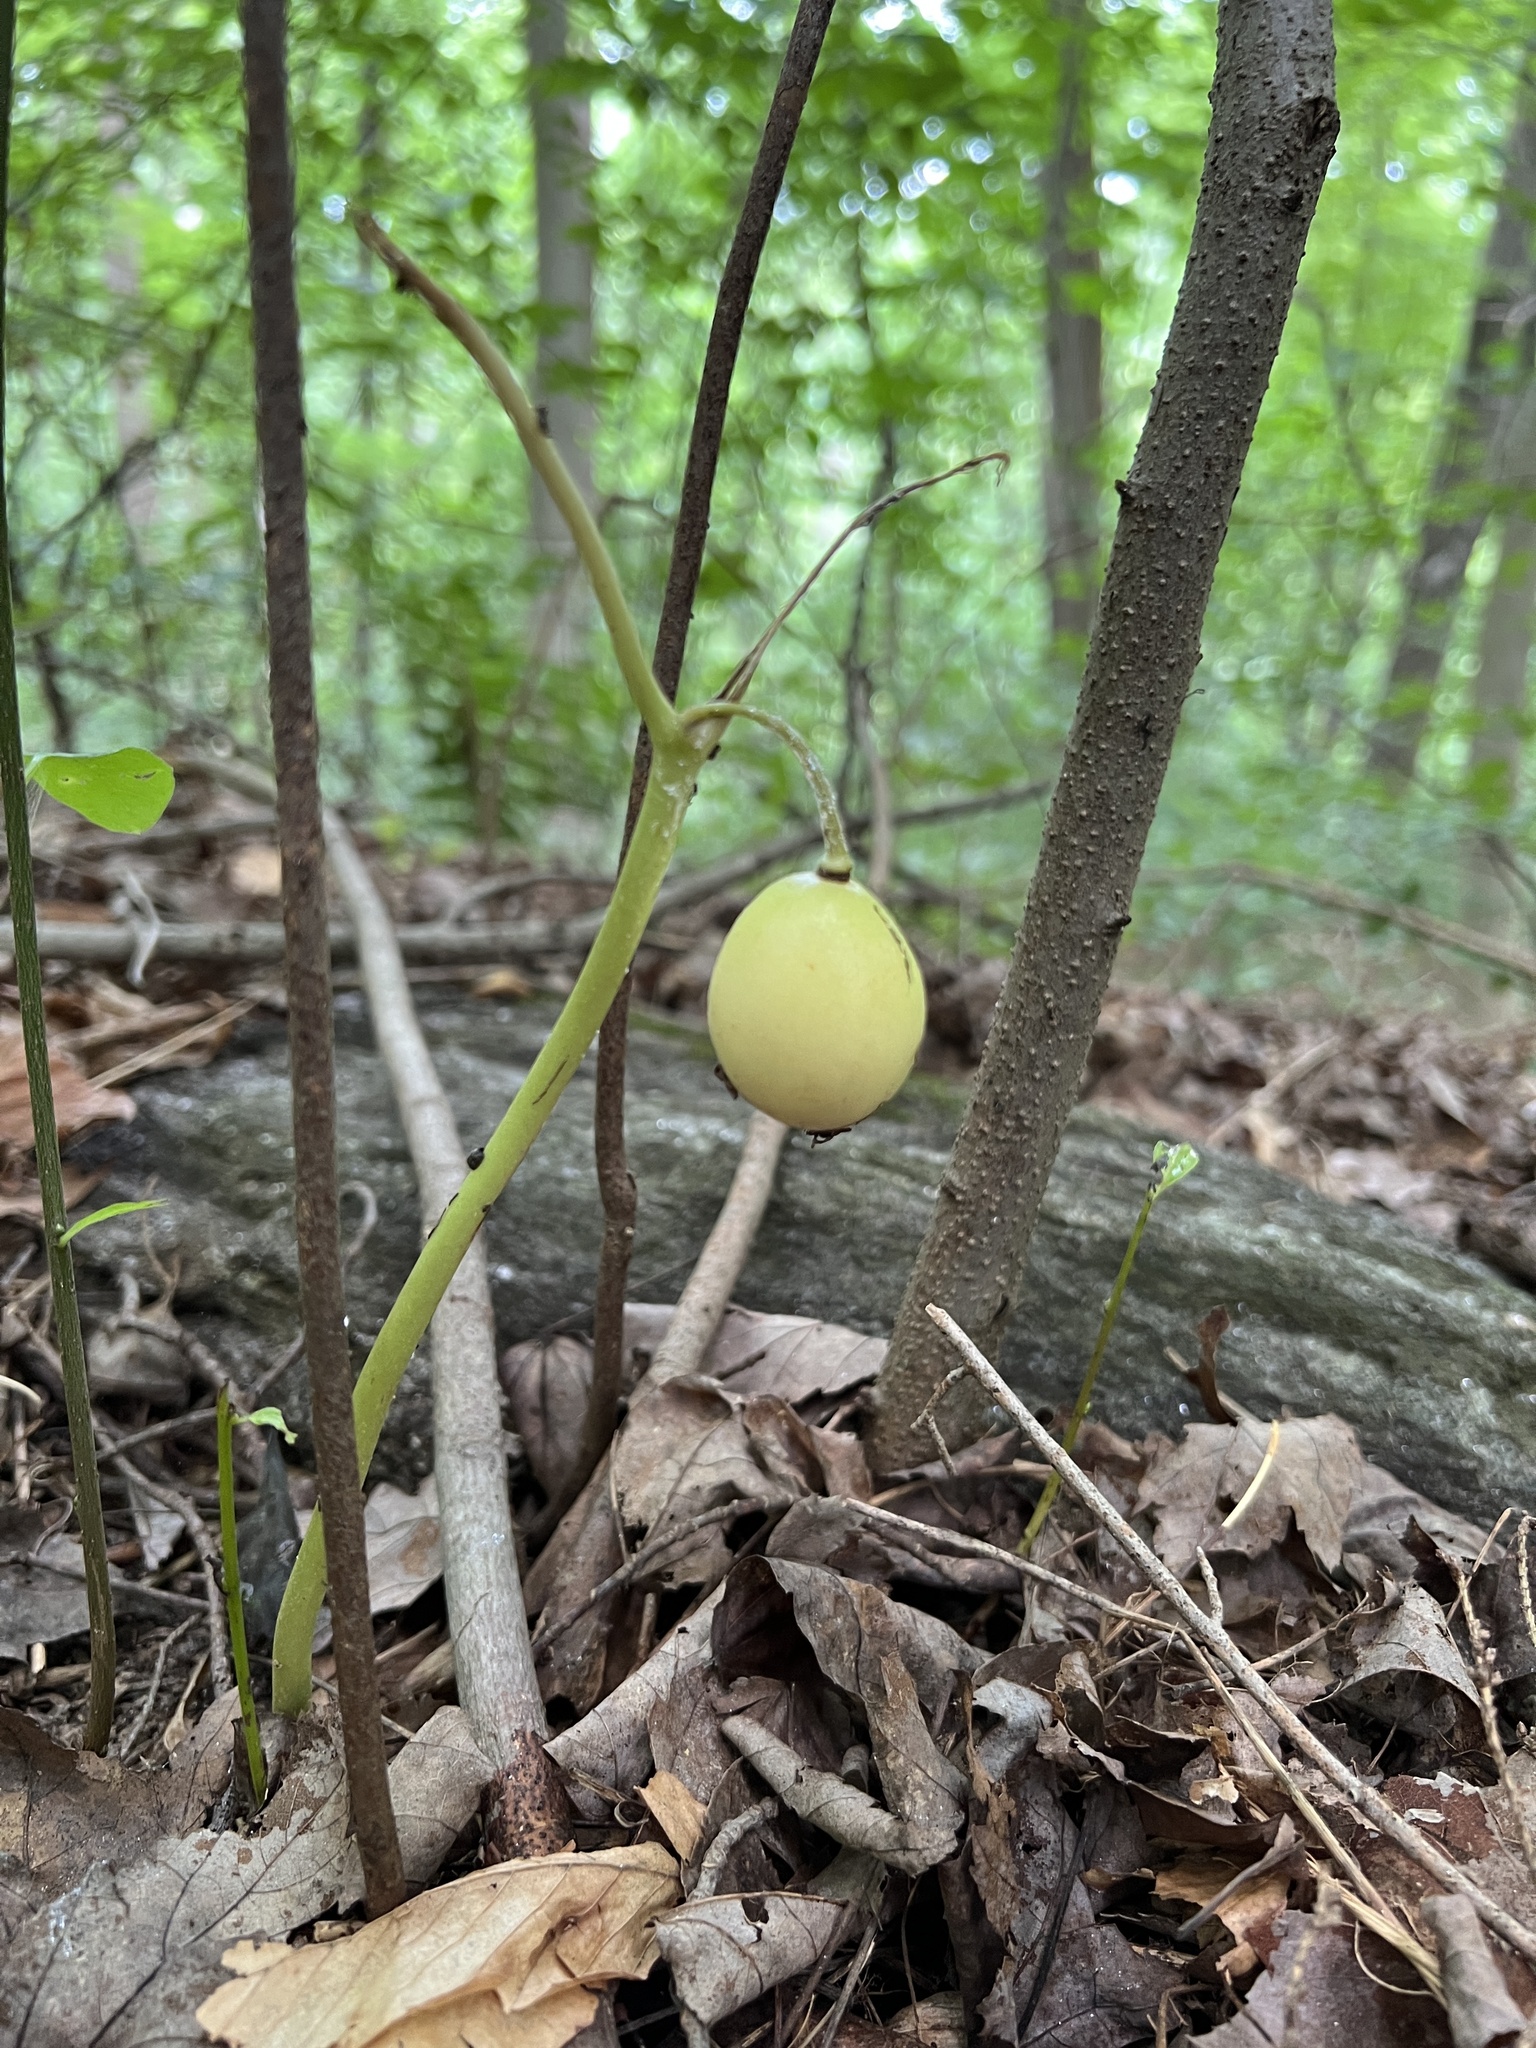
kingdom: Plantae
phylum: Tracheophyta
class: Magnoliopsida
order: Ranunculales
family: Berberidaceae
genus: Podophyllum
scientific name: Podophyllum peltatum
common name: Wild mandrake
